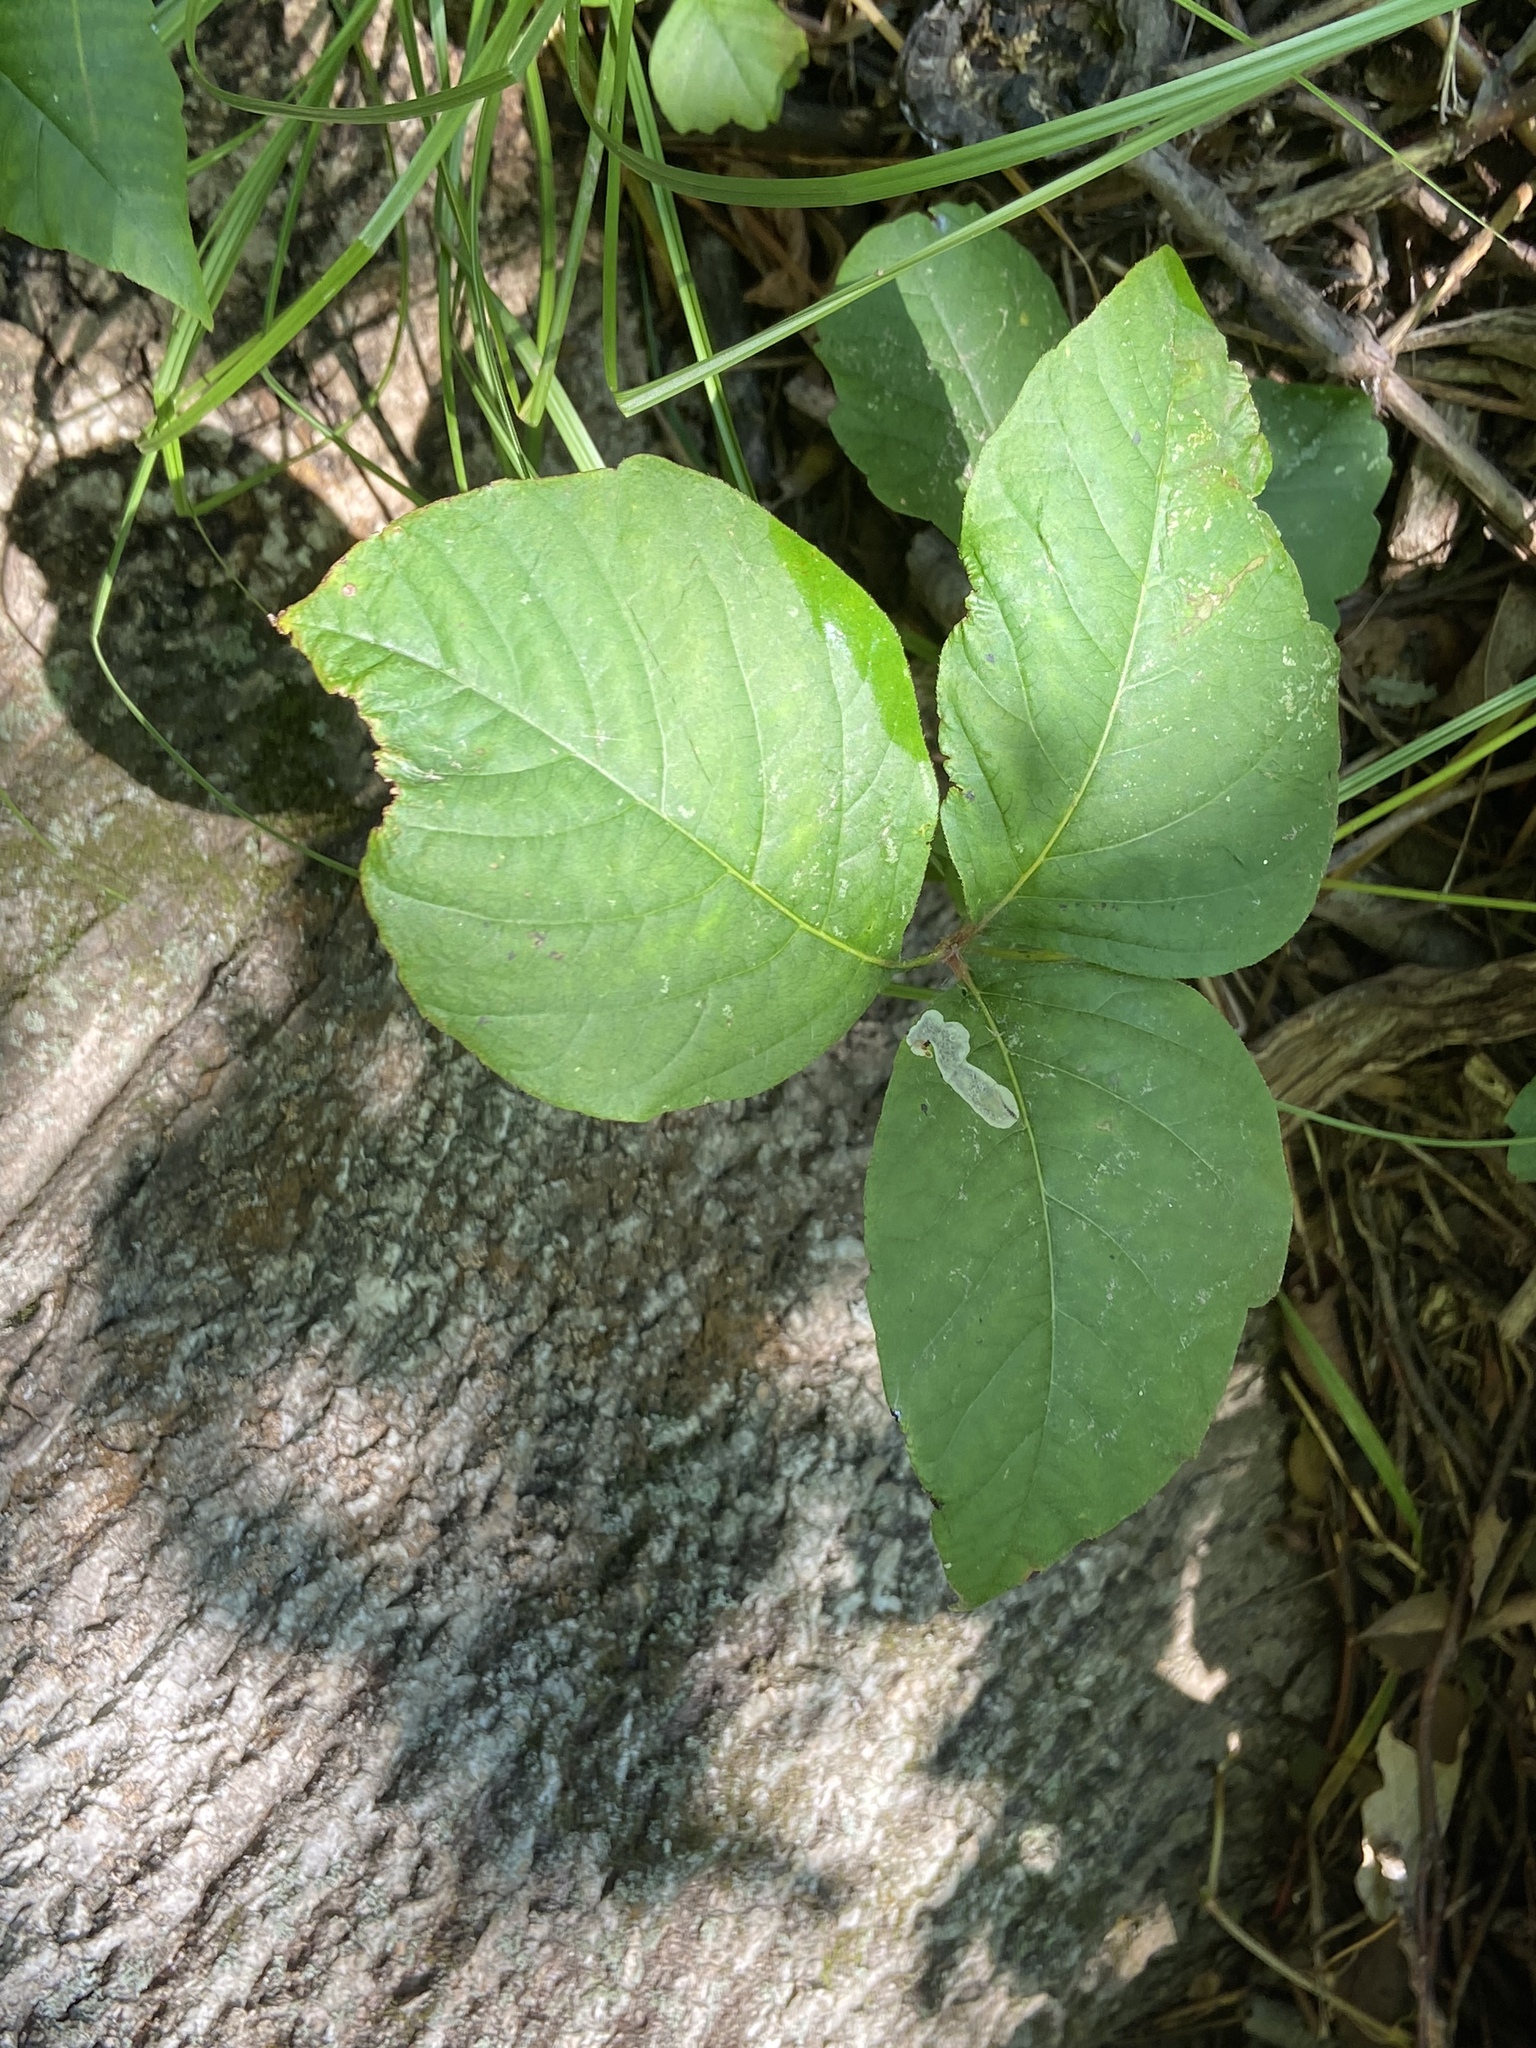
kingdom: Plantae
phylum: Tracheophyta
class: Magnoliopsida
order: Sapindales
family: Anacardiaceae
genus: Toxicodendron
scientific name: Toxicodendron radicans
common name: Poison ivy
